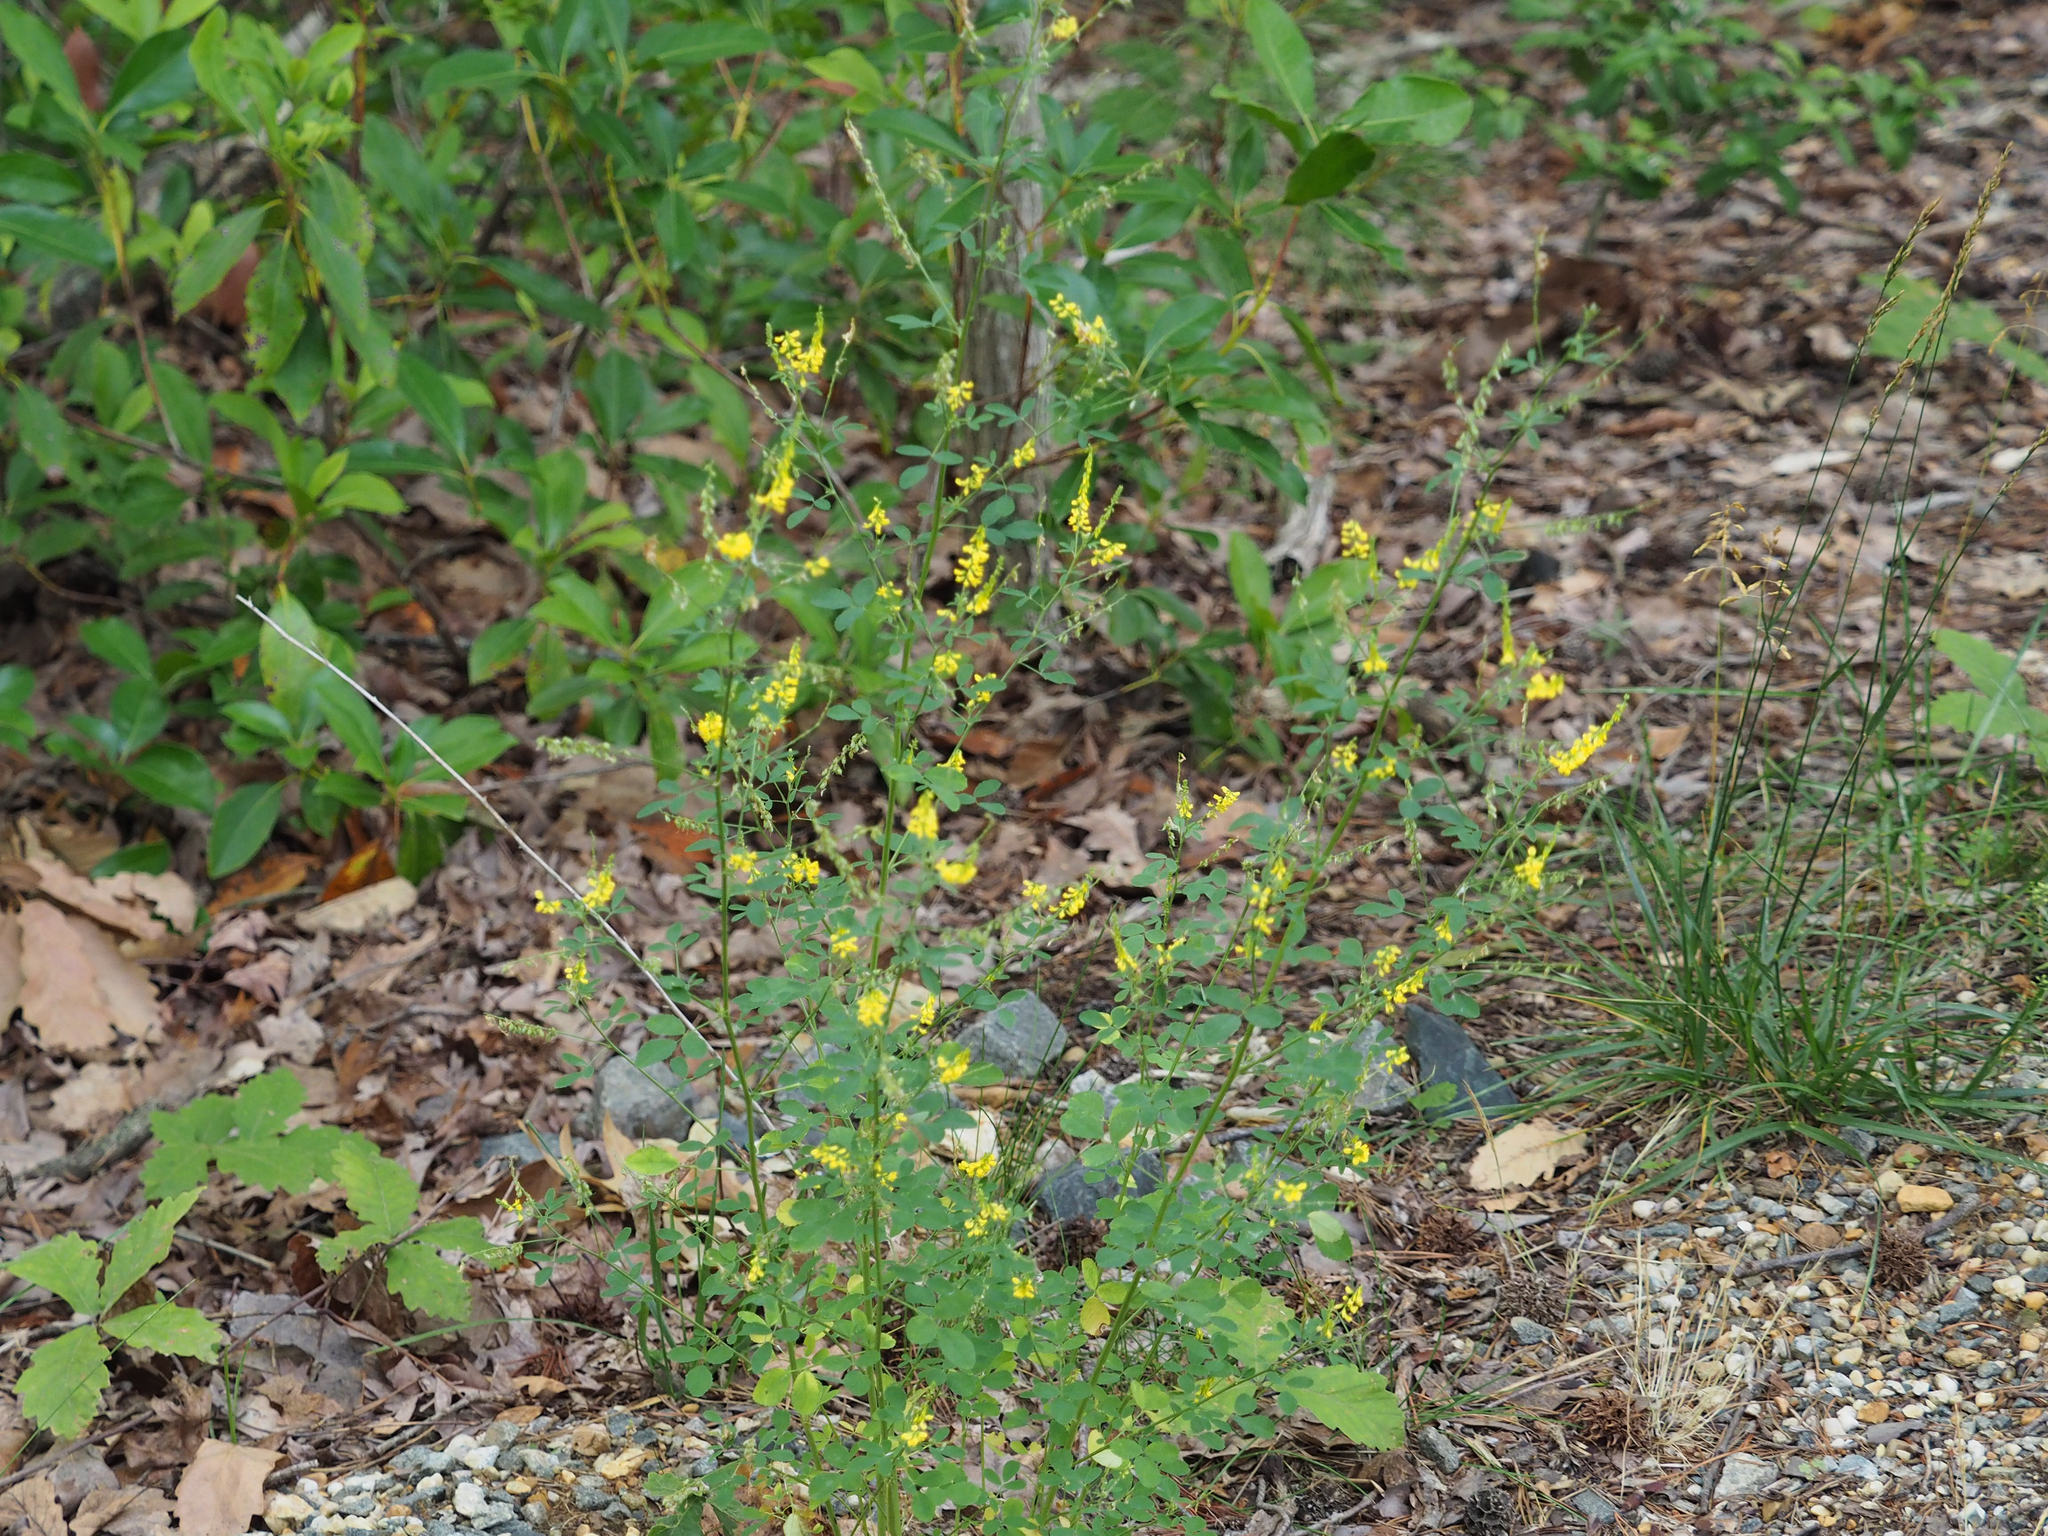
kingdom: Plantae
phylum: Tracheophyta
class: Magnoliopsida
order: Fabales
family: Fabaceae
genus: Melilotus
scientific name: Melilotus officinalis
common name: Sweetclover
